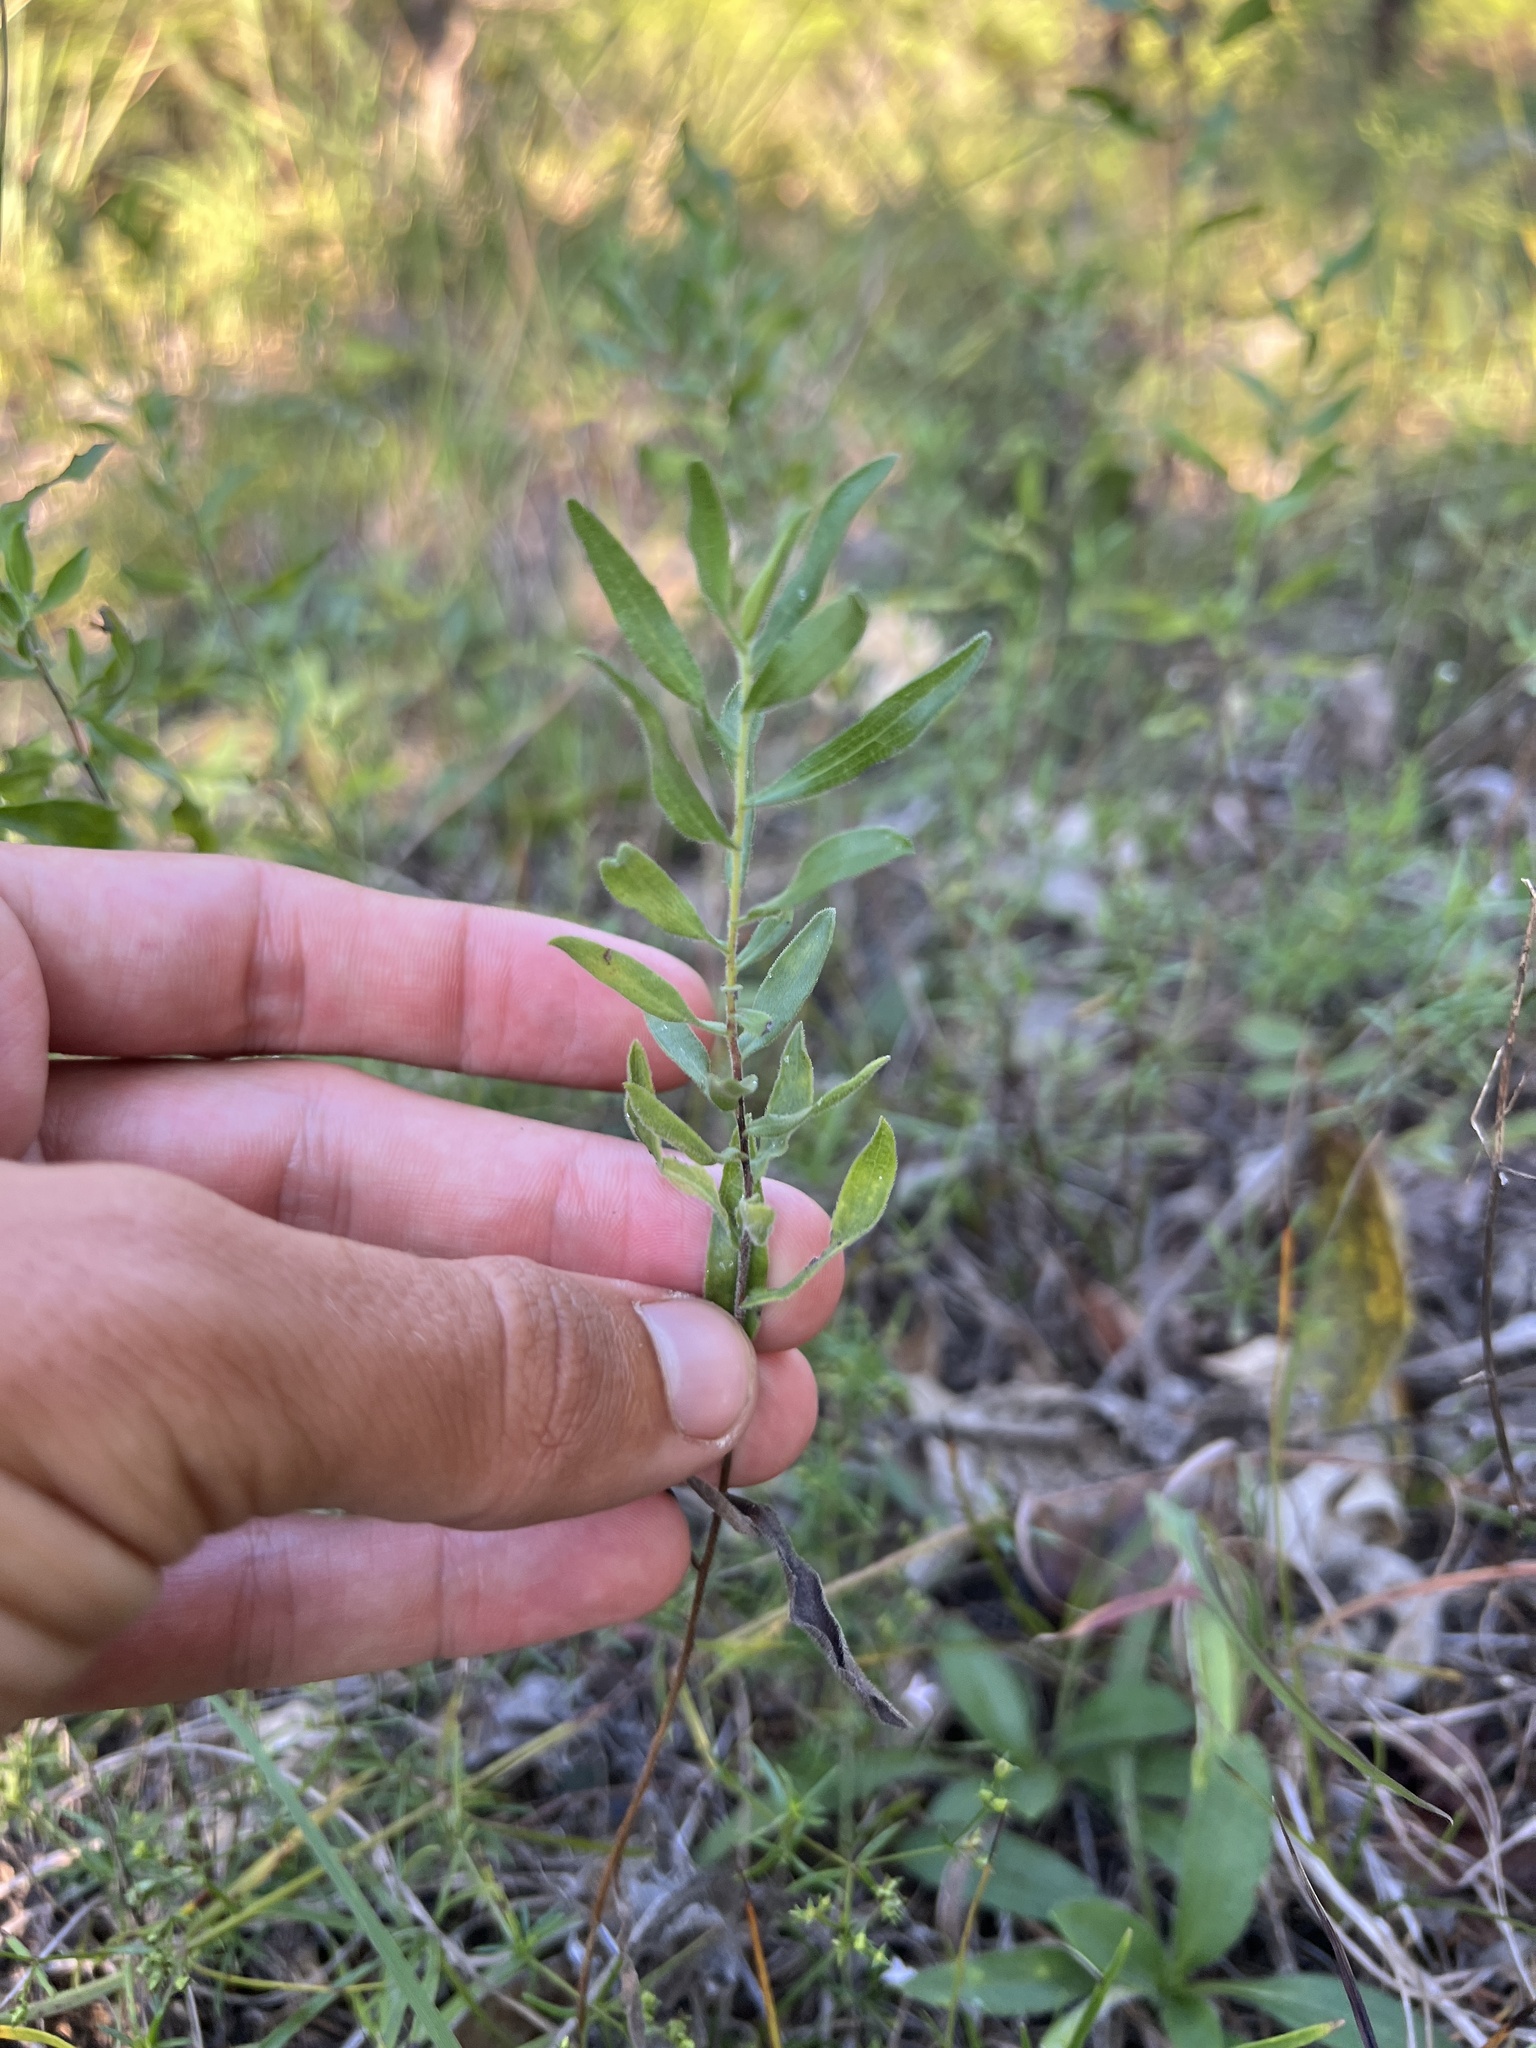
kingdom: Plantae
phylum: Tracheophyta
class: Magnoliopsida
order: Asterales
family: Asteraceae
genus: Symphyotrichum
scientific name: Symphyotrichum oblongifolium
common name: Aromatic aster
